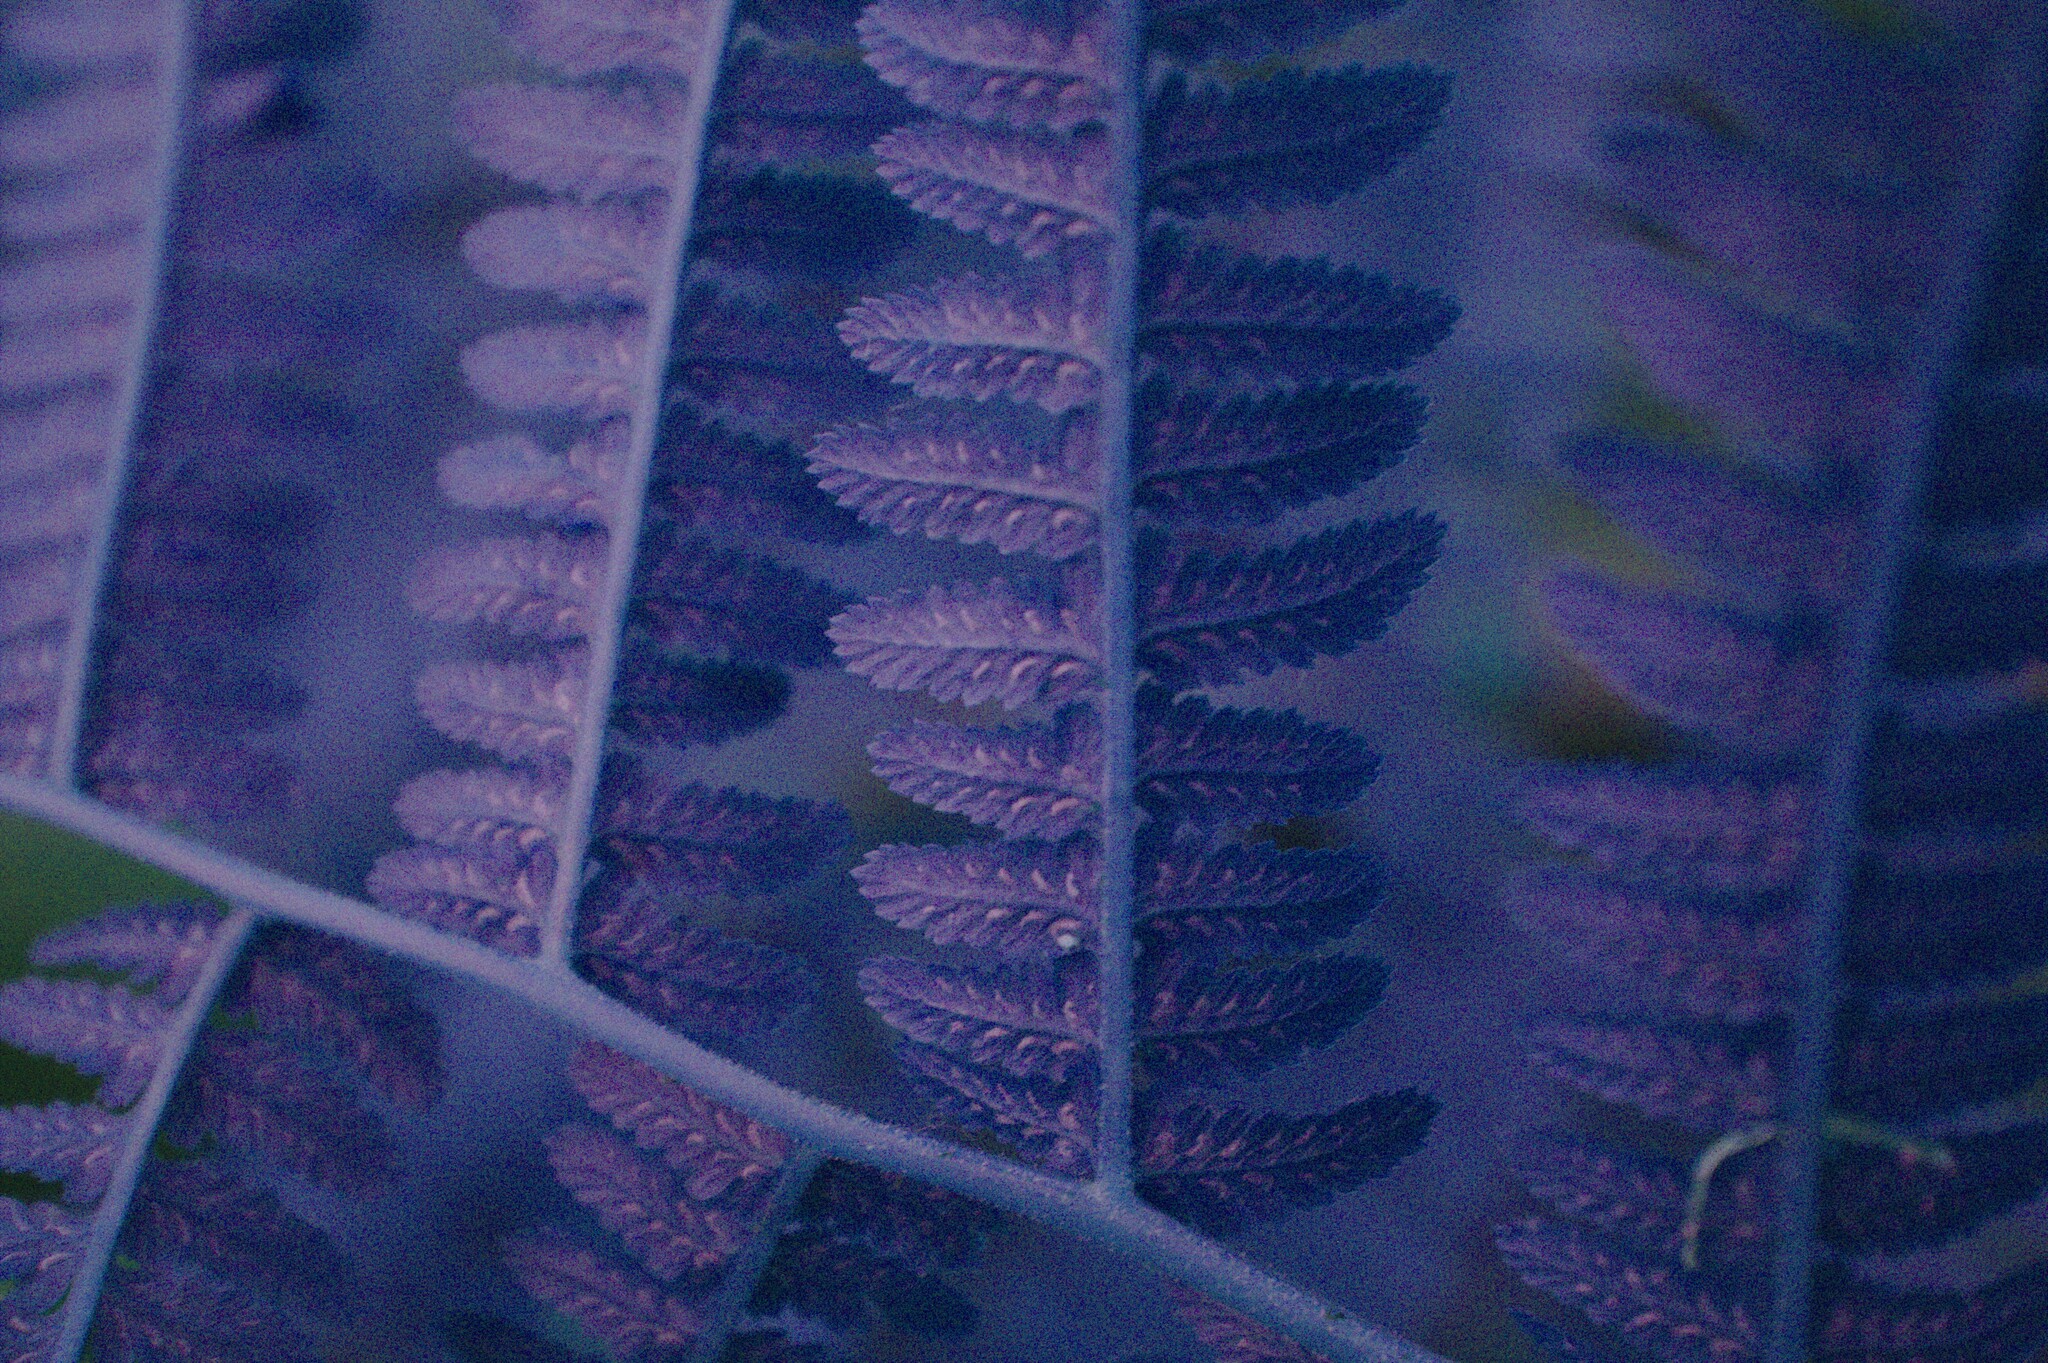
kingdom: Plantae
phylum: Tracheophyta
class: Polypodiopsida
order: Polypodiales
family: Athyriaceae
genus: Athyrium
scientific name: Athyrium angustum
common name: Northern lady fern
